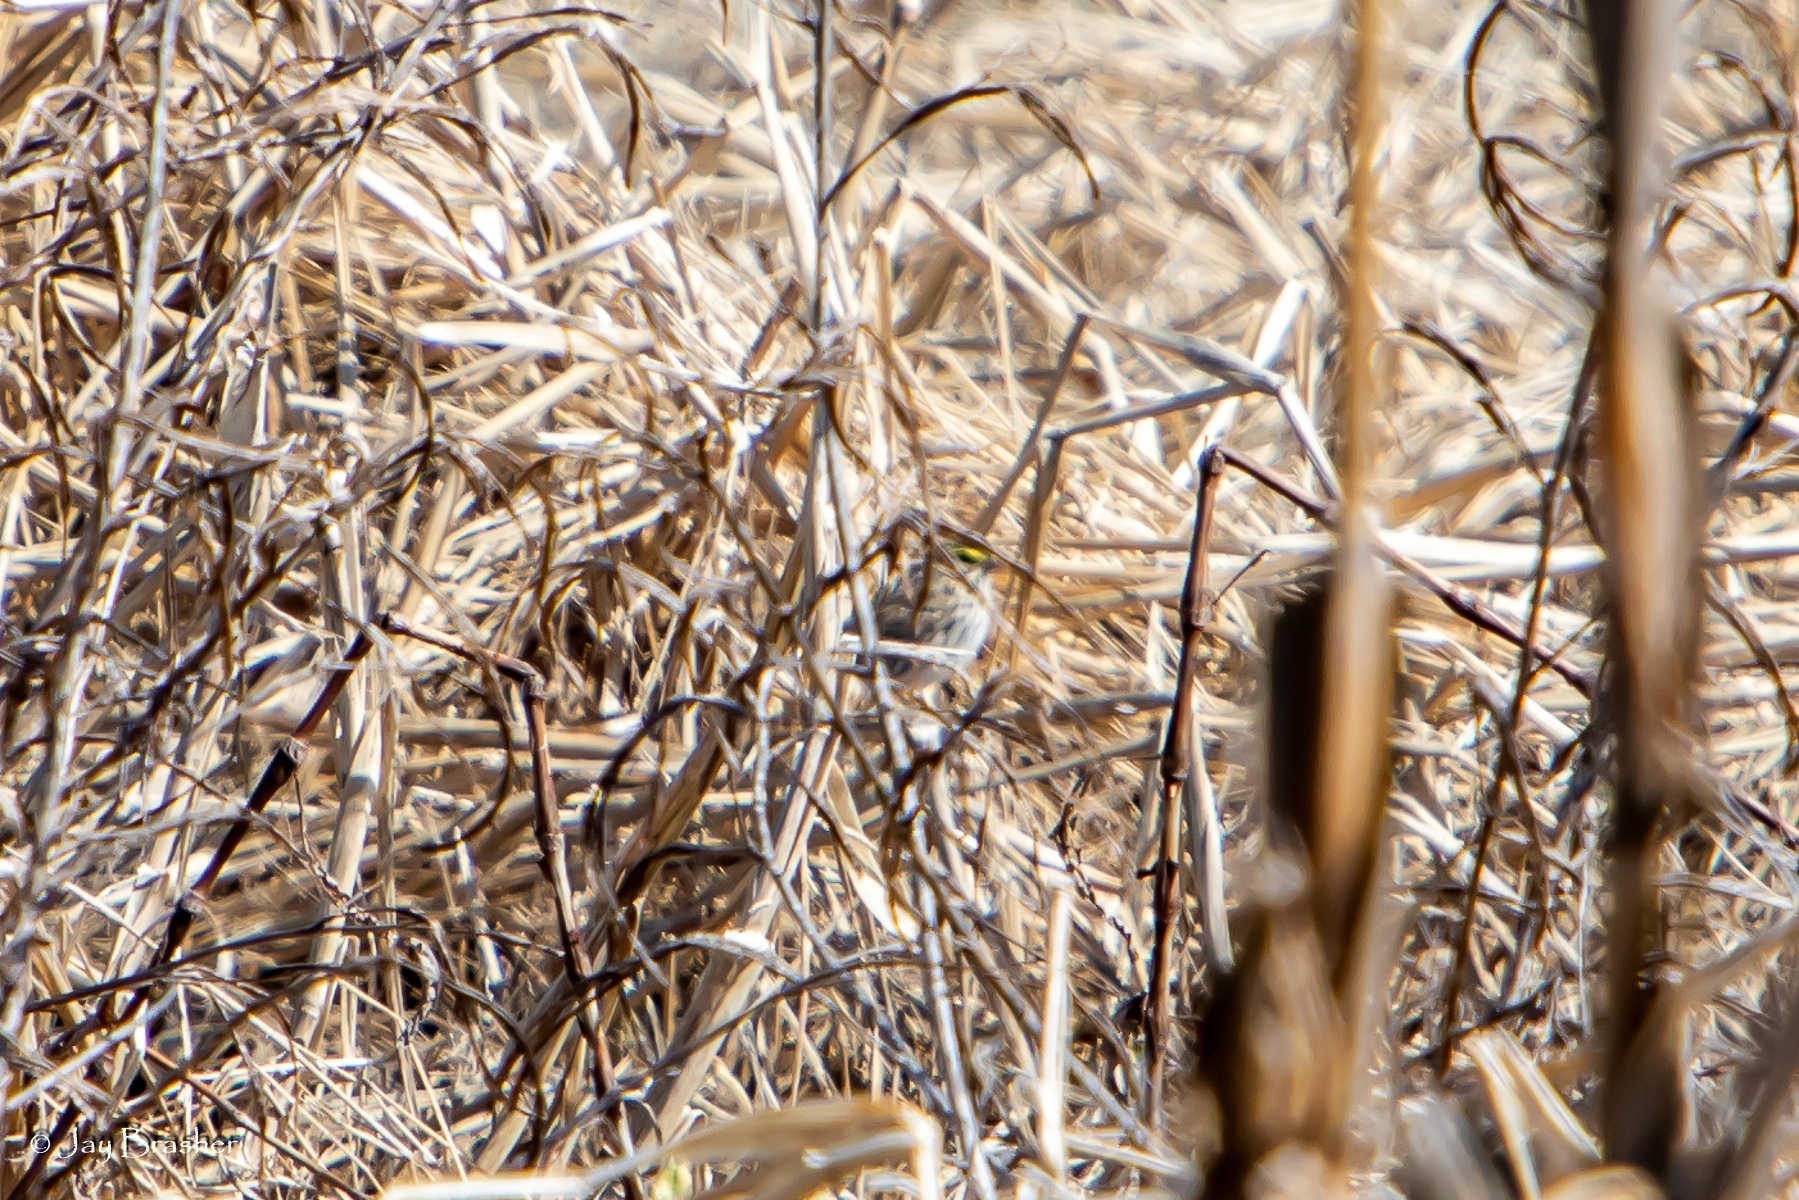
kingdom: Animalia
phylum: Chordata
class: Aves
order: Passeriformes
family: Passerellidae
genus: Passerculus
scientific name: Passerculus sandwichensis
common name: Savannah sparrow
